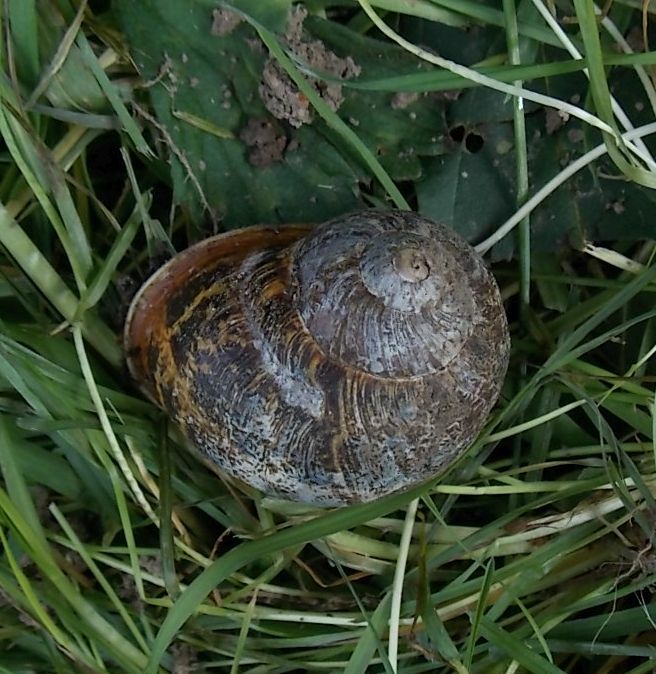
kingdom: Animalia
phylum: Mollusca
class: Gastropoda
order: Stylommatophora
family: Helicidae
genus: Cornu
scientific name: Cornu aspersum
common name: Brown garden snail
